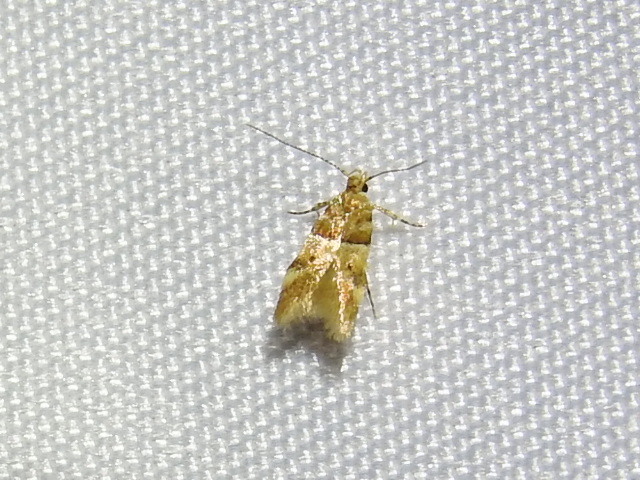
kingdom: Animalia
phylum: Arthropoda
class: Insecta
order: Lepidoptera
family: Gelechiidae
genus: Theisoa
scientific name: Theisoa constrictella
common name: Constricted twirler
